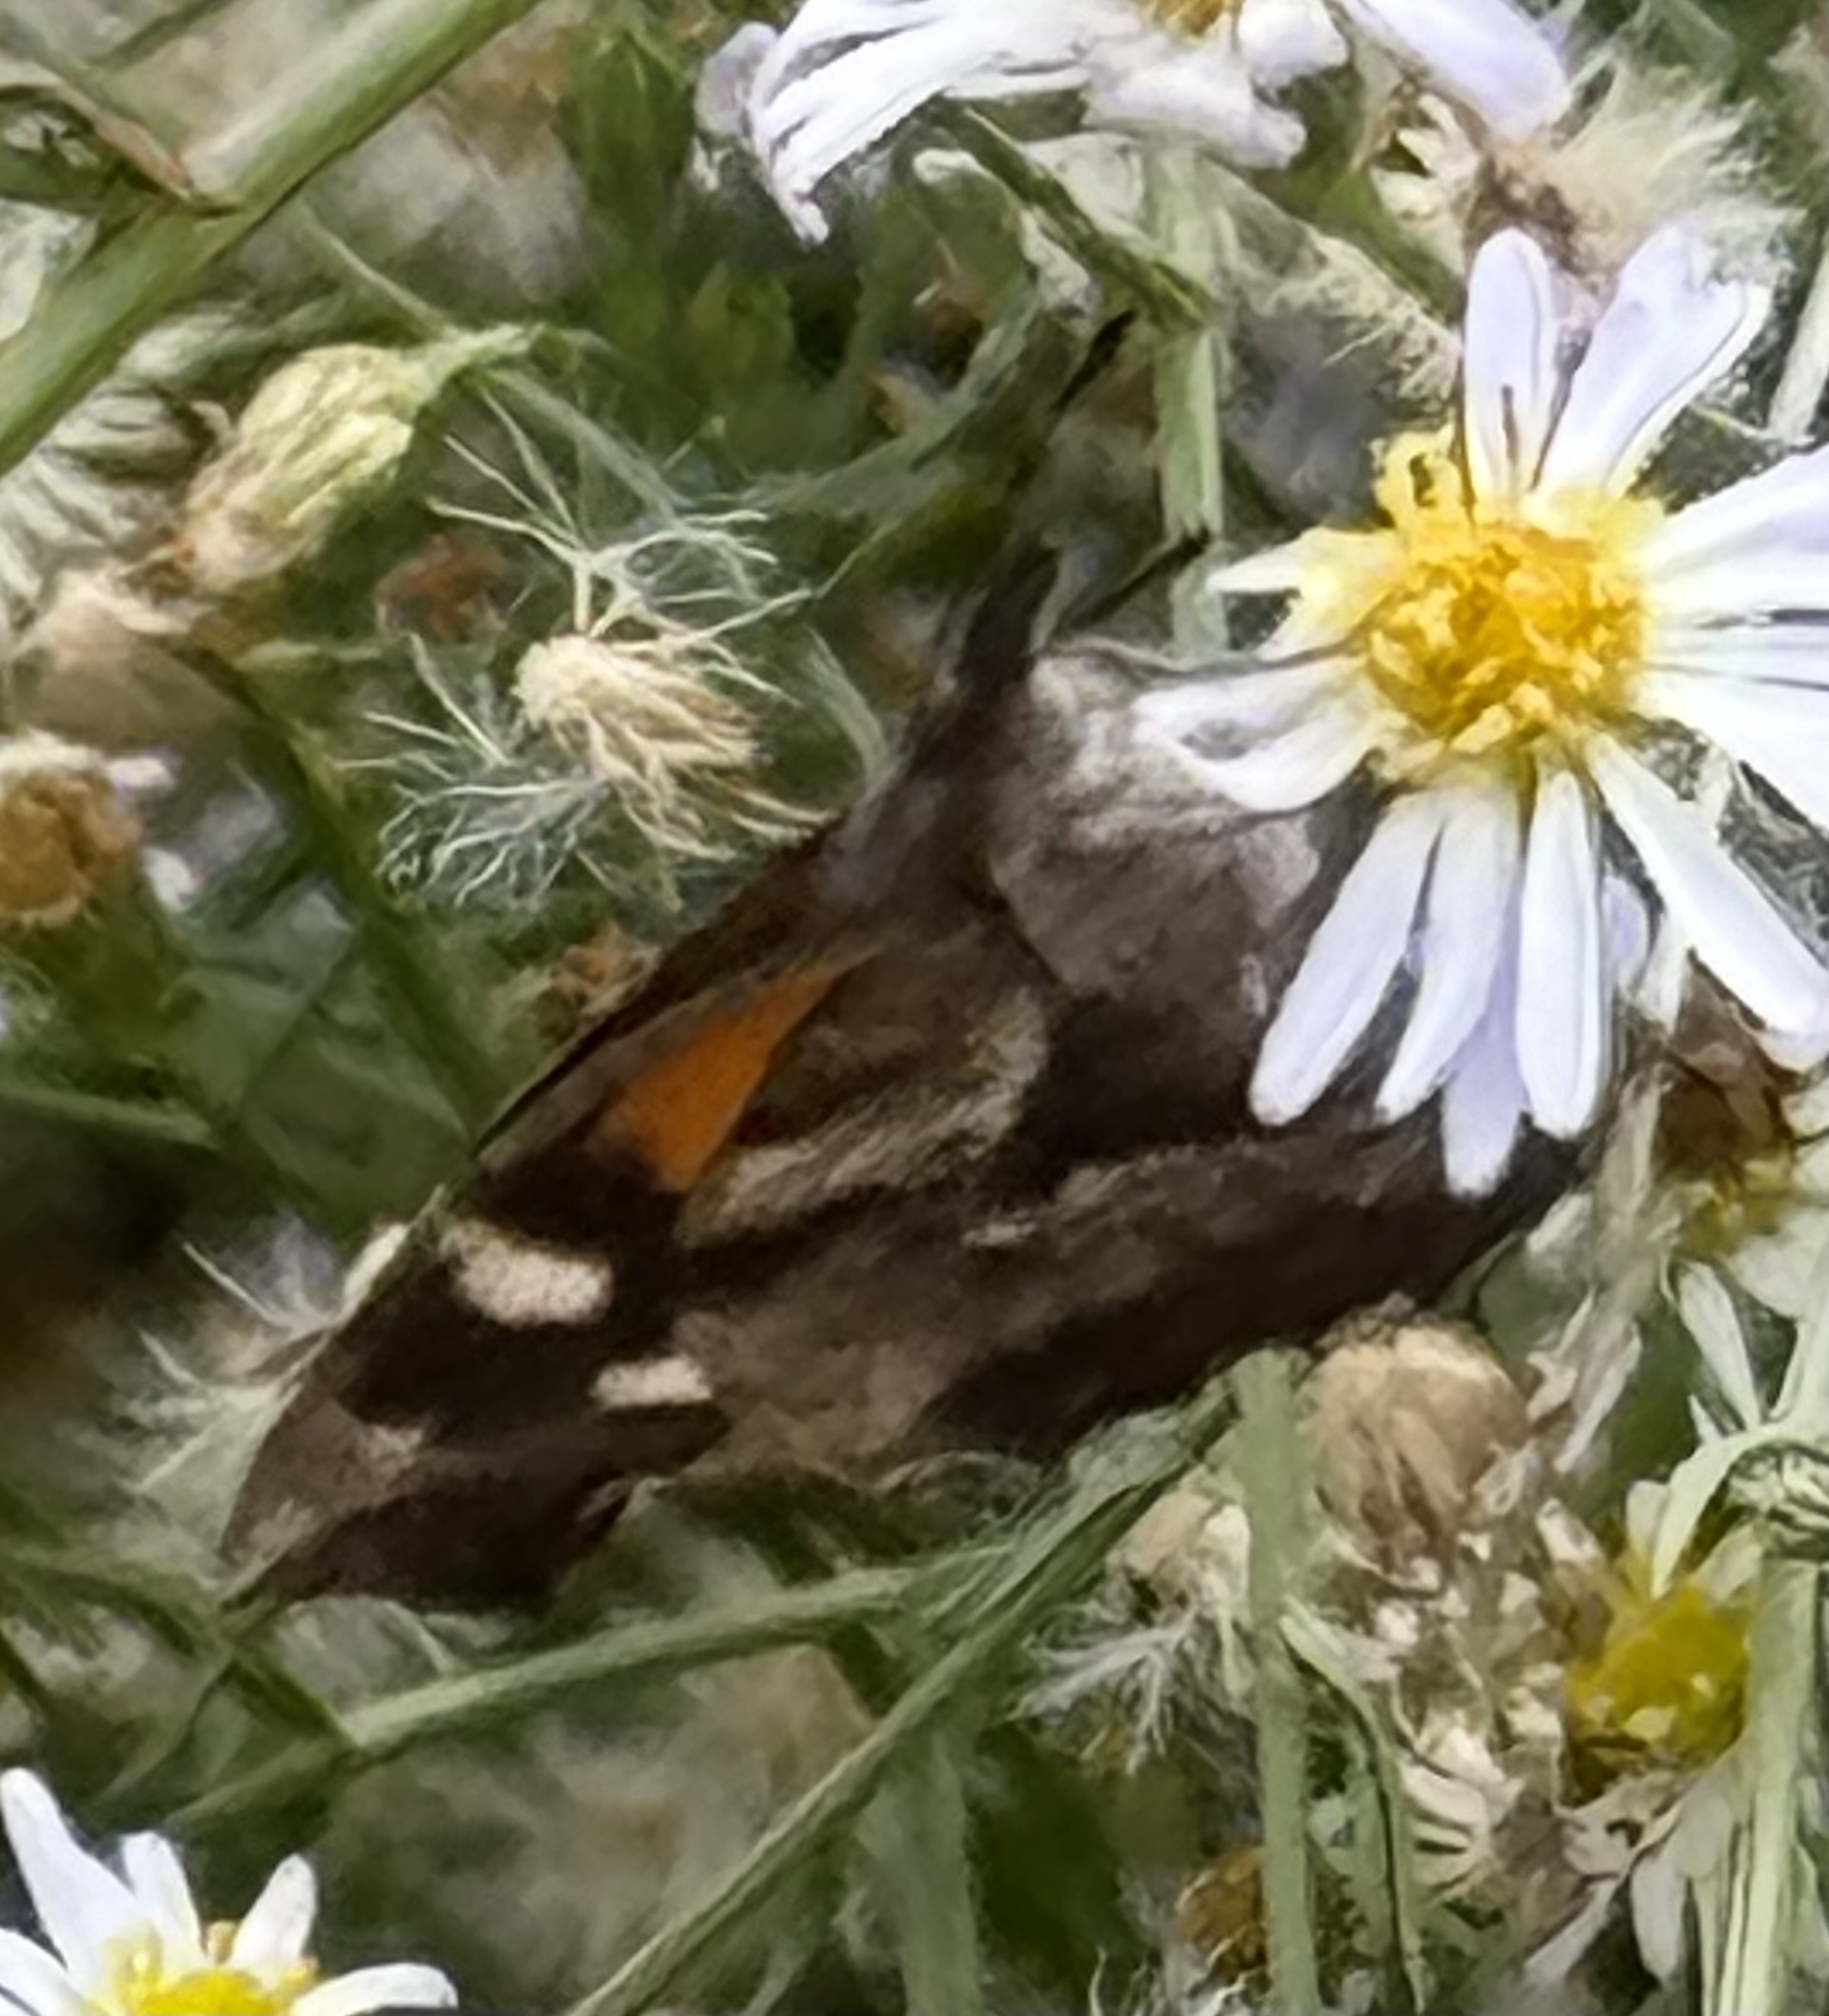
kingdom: Animalia
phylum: Arthropoda
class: Insecta
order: Lepidoptera
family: Nymphalidae
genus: Libytheana
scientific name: Libytheana carinenta
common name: American snout
